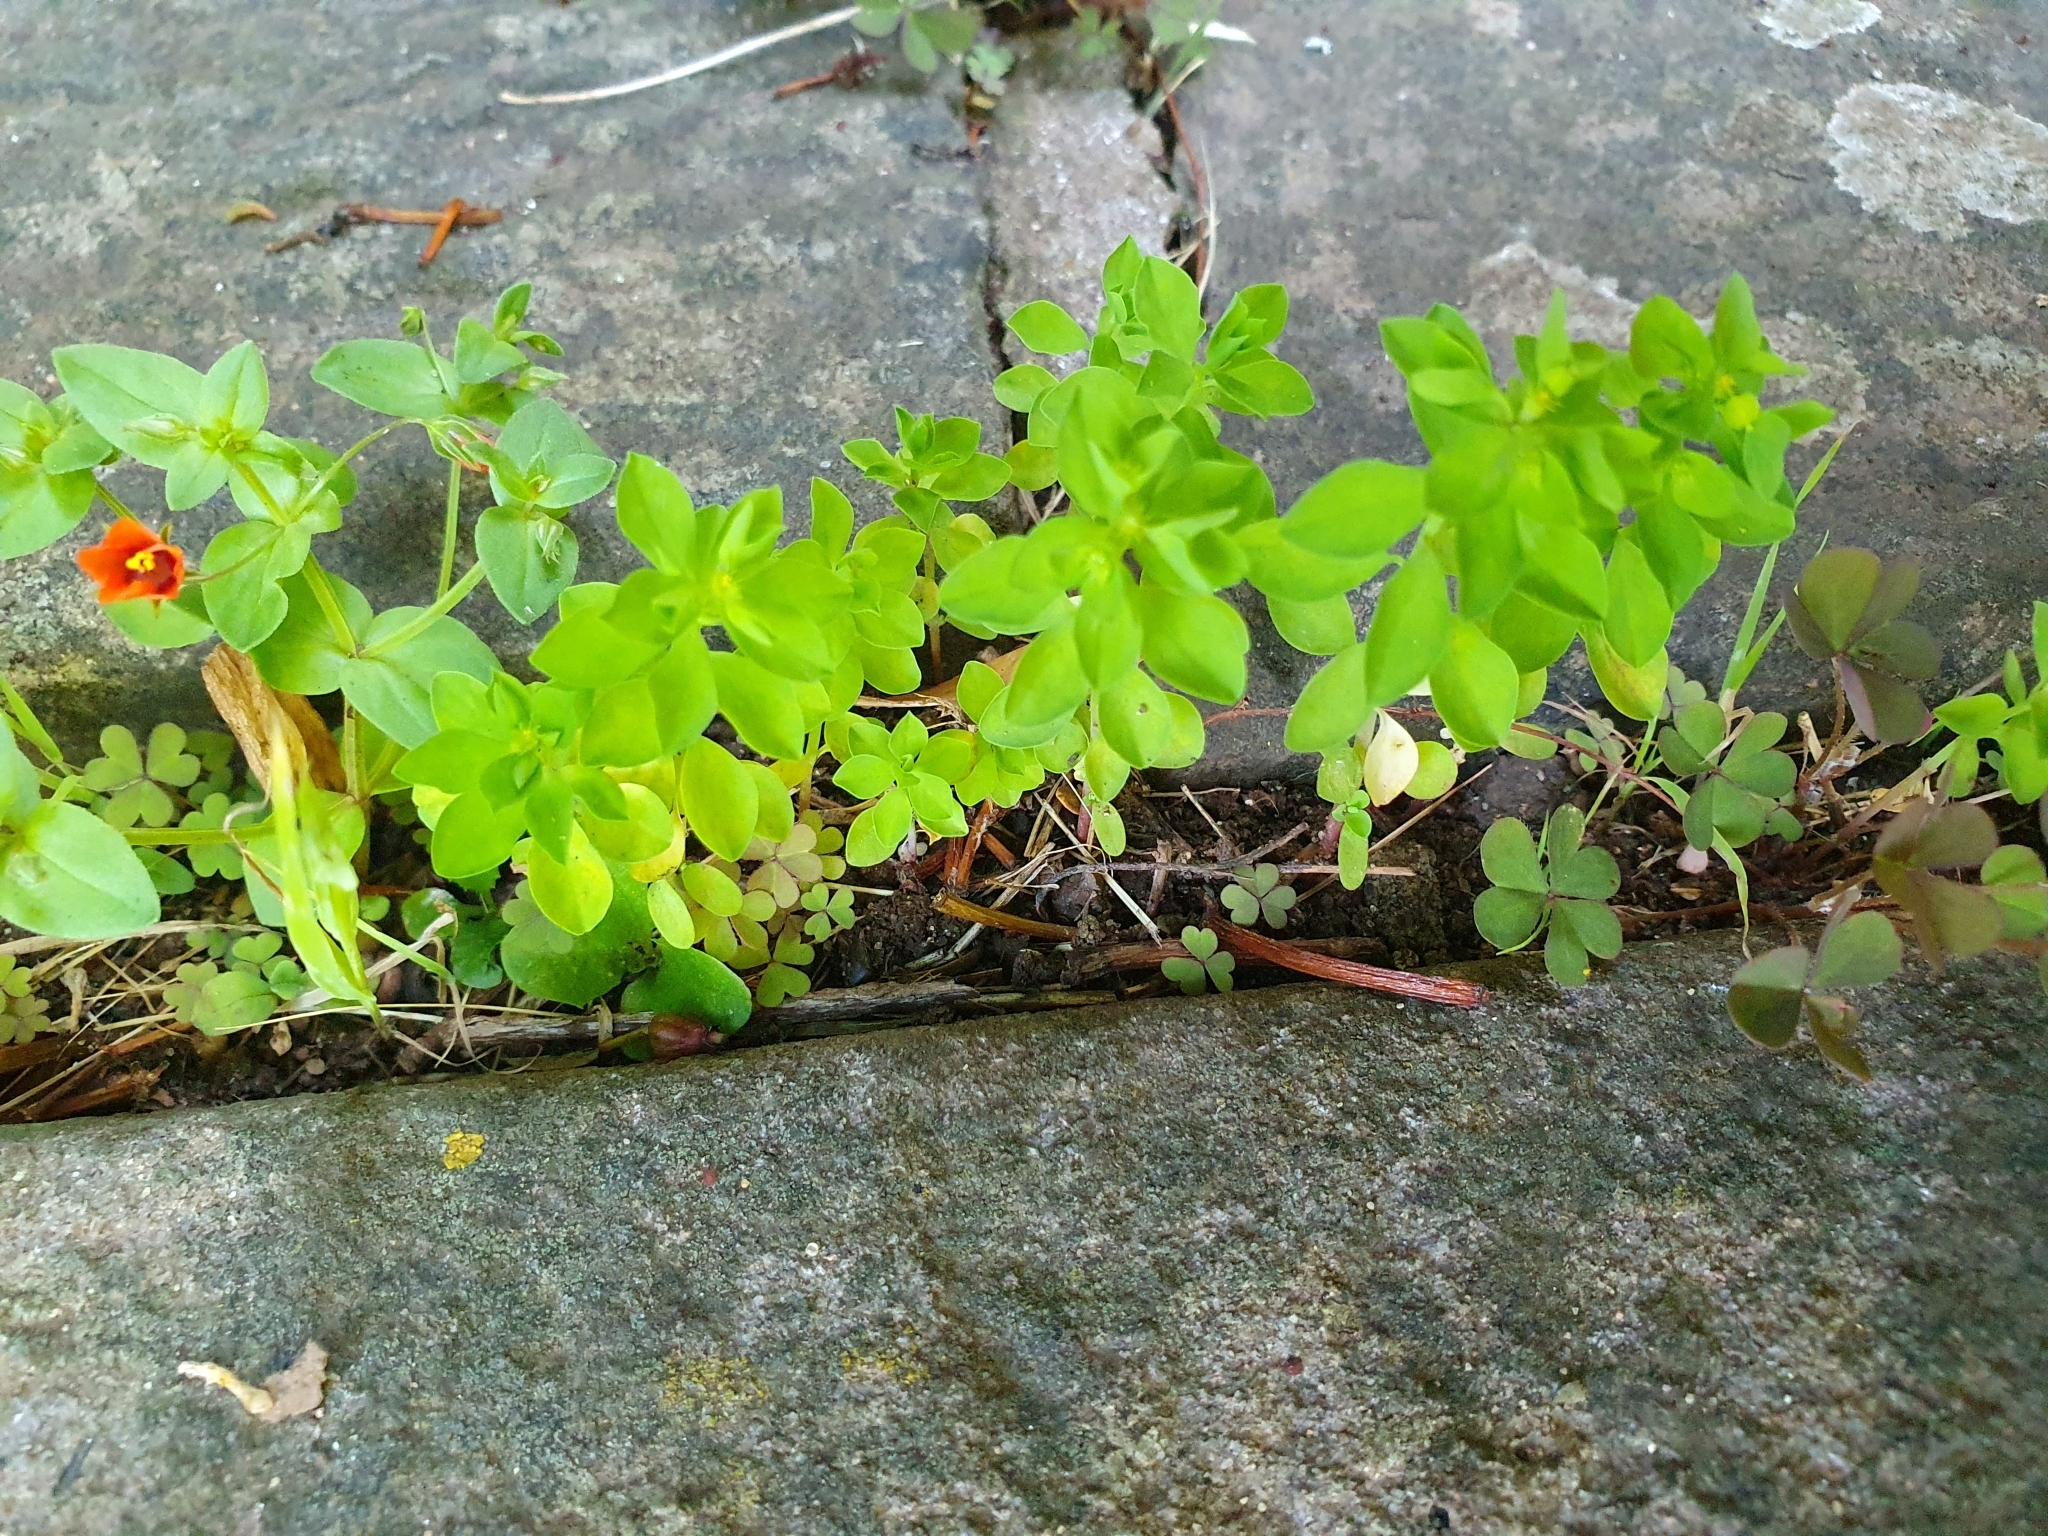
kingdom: Plantae
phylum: Tracheophyta
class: Magnoliopsida
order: Malpighiales
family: Euphorbiaceae
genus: Euphorbia
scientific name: Euphorbia peplus
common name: Petty spurge
